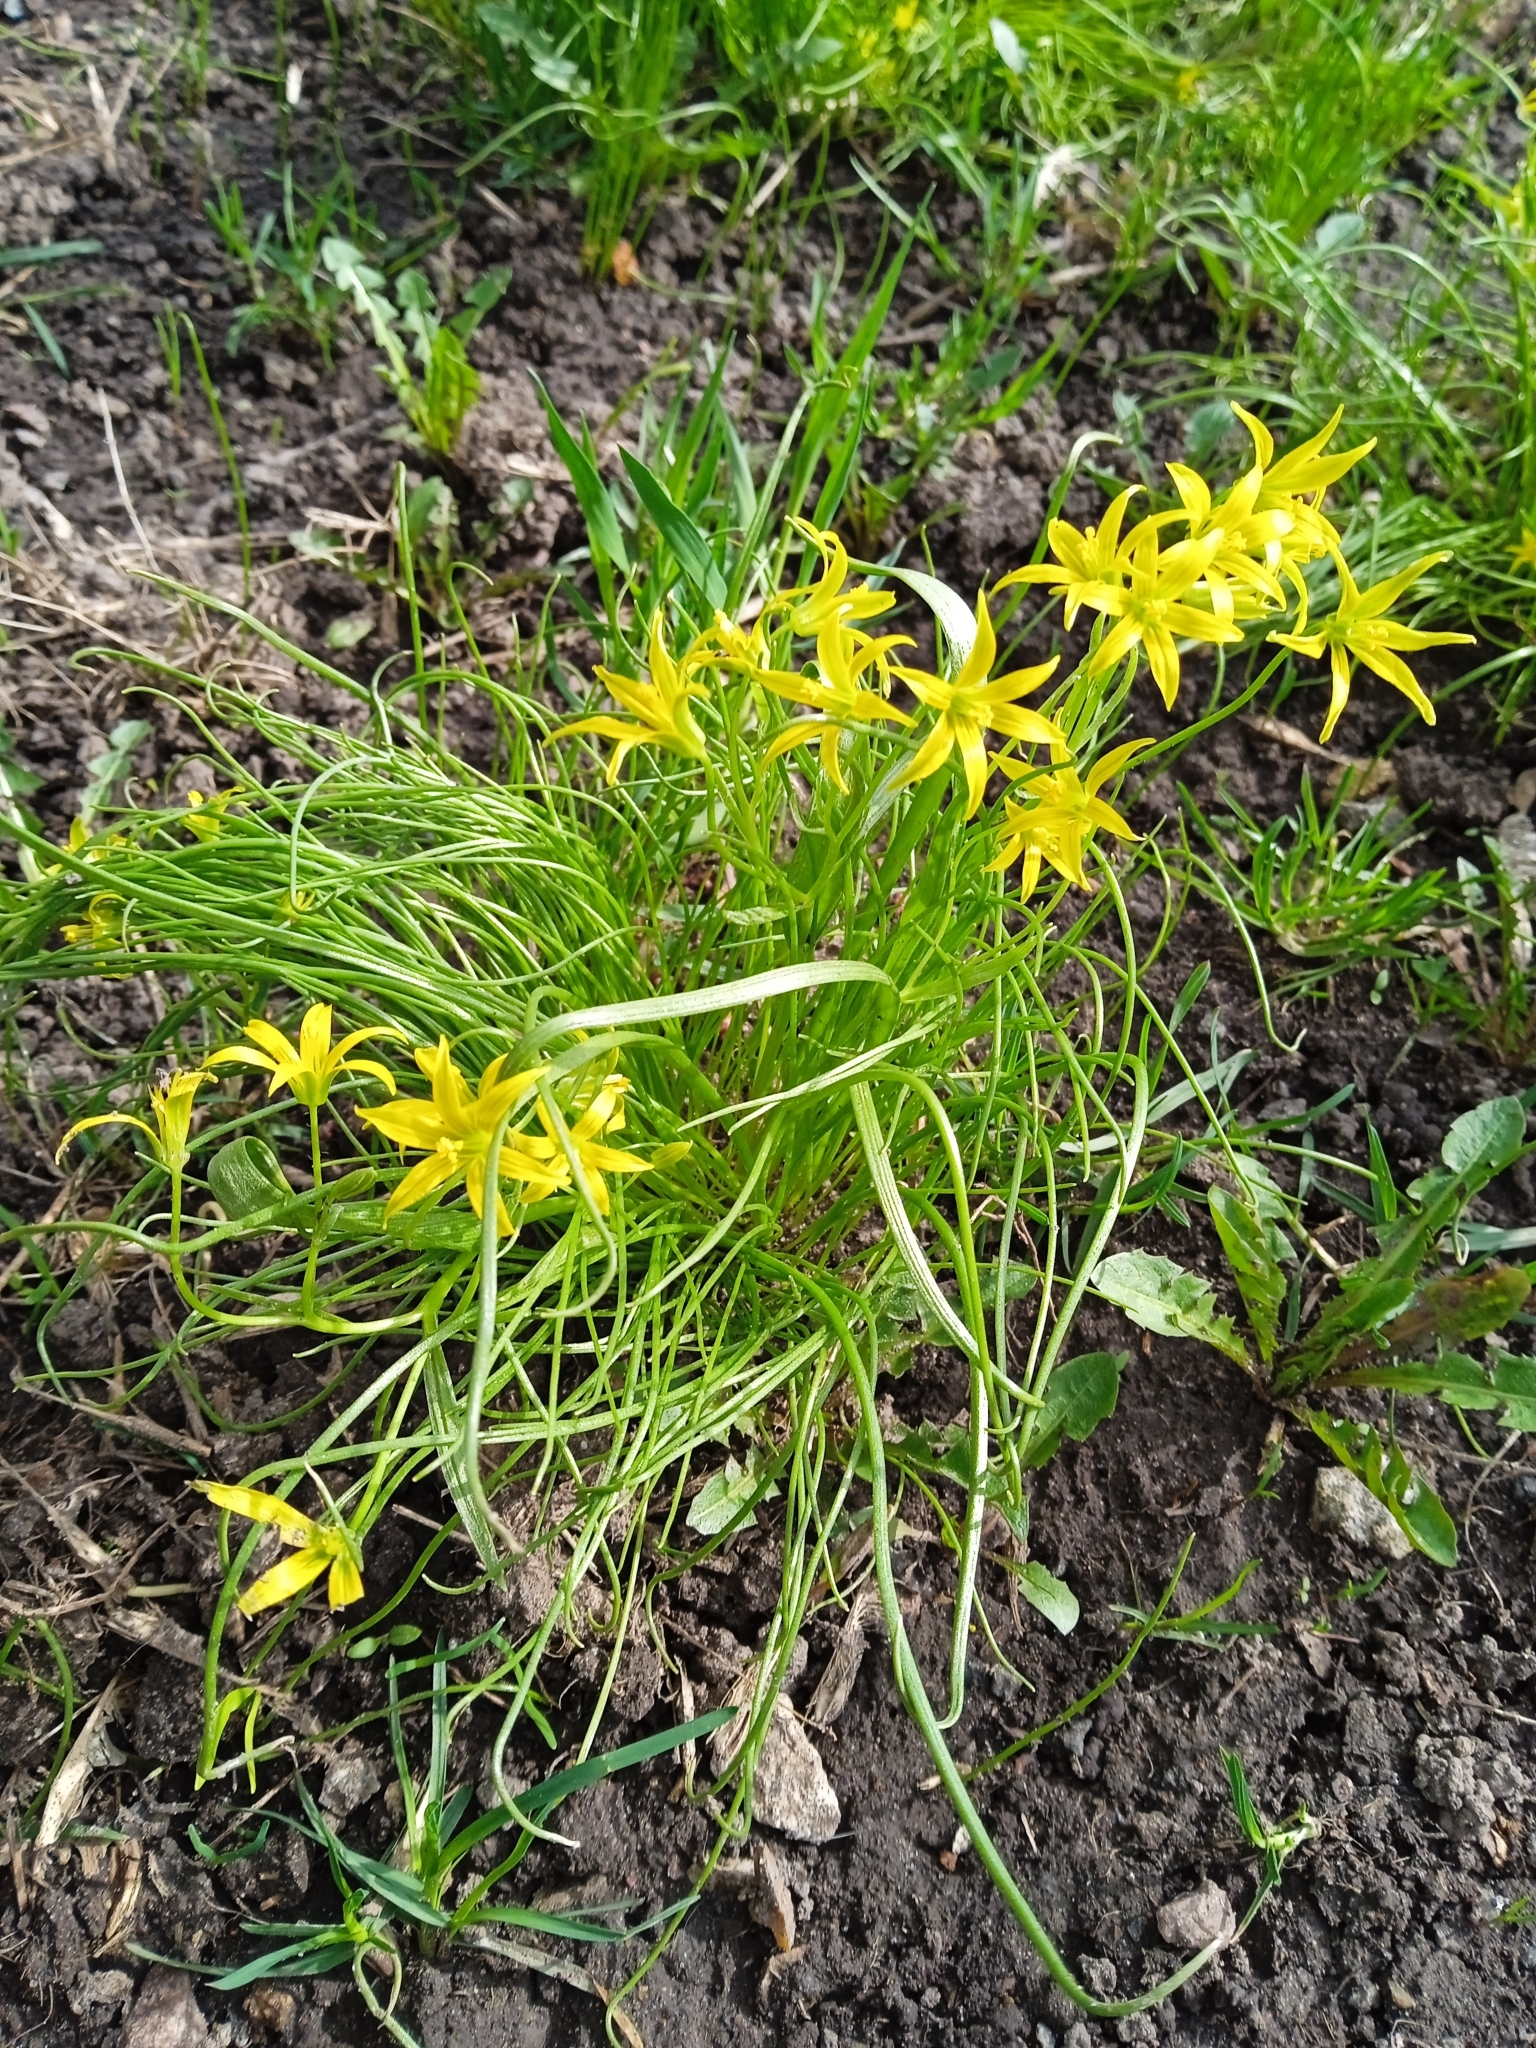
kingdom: Plantae
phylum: Tracheophyta
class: Liliopsida
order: Liliales
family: Liliaceae
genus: Gagea
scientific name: Gagea minima
